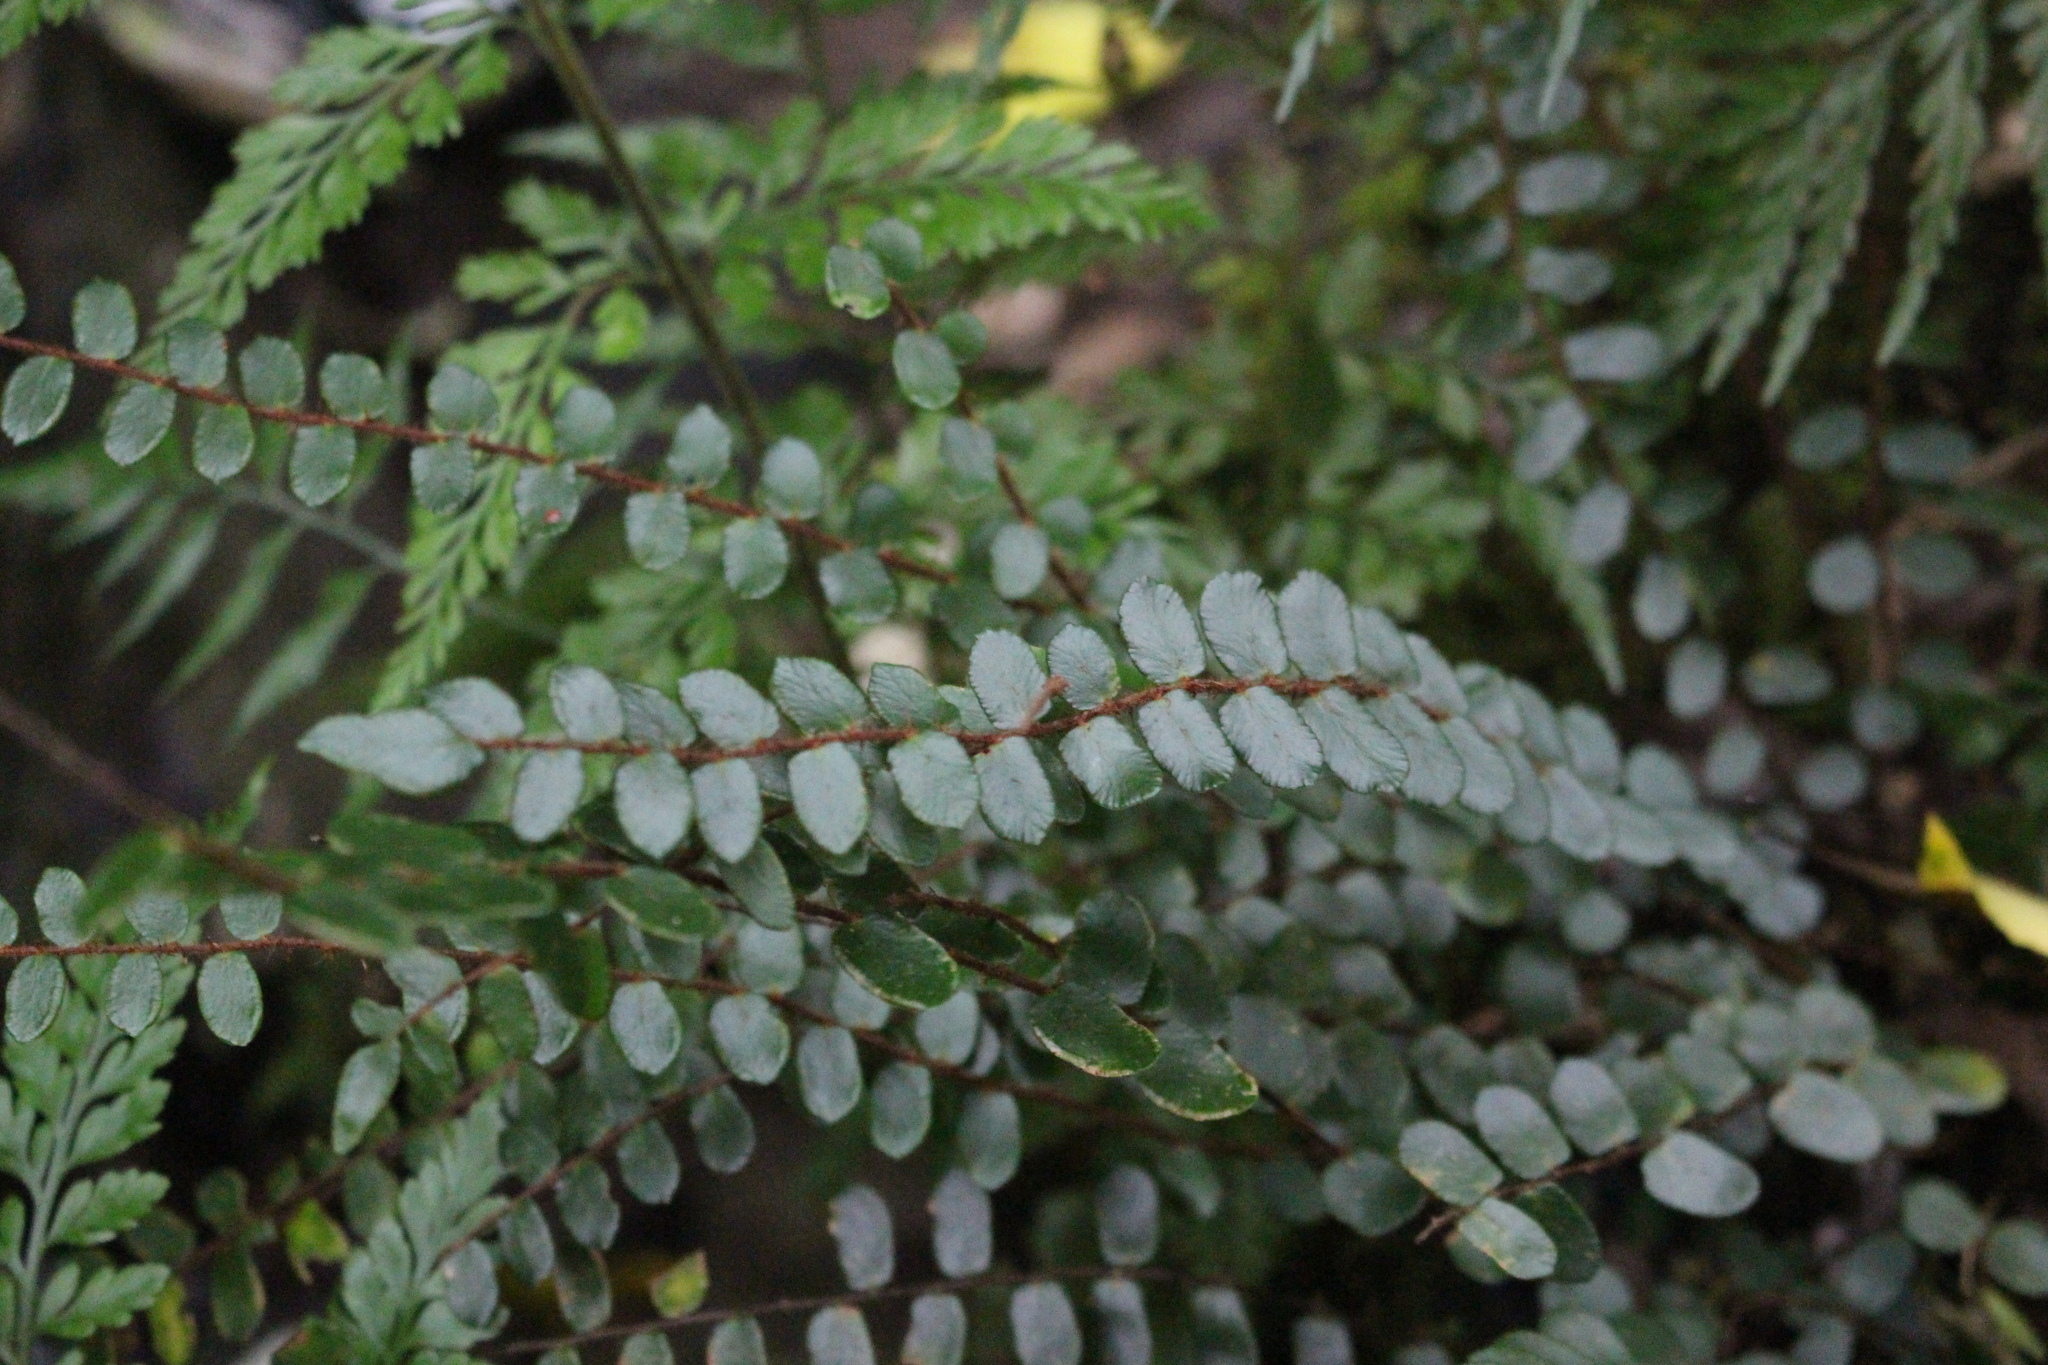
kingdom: Plantae
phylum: Tracheophyta
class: Polypodiopsida
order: Polypodiales
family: Pteridaceae
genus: Pellaea
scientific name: Pellaea rotundifolia
